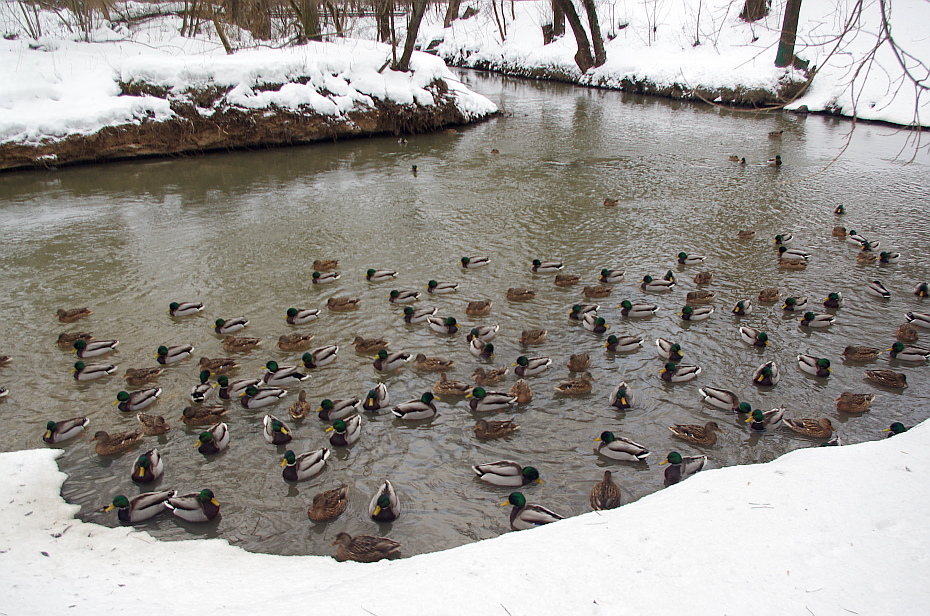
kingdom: Animalia
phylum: Chordata
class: Aves
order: Anseriformes
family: Anatidae
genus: Anas
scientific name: Anas platyrhynchos
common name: Mallard
